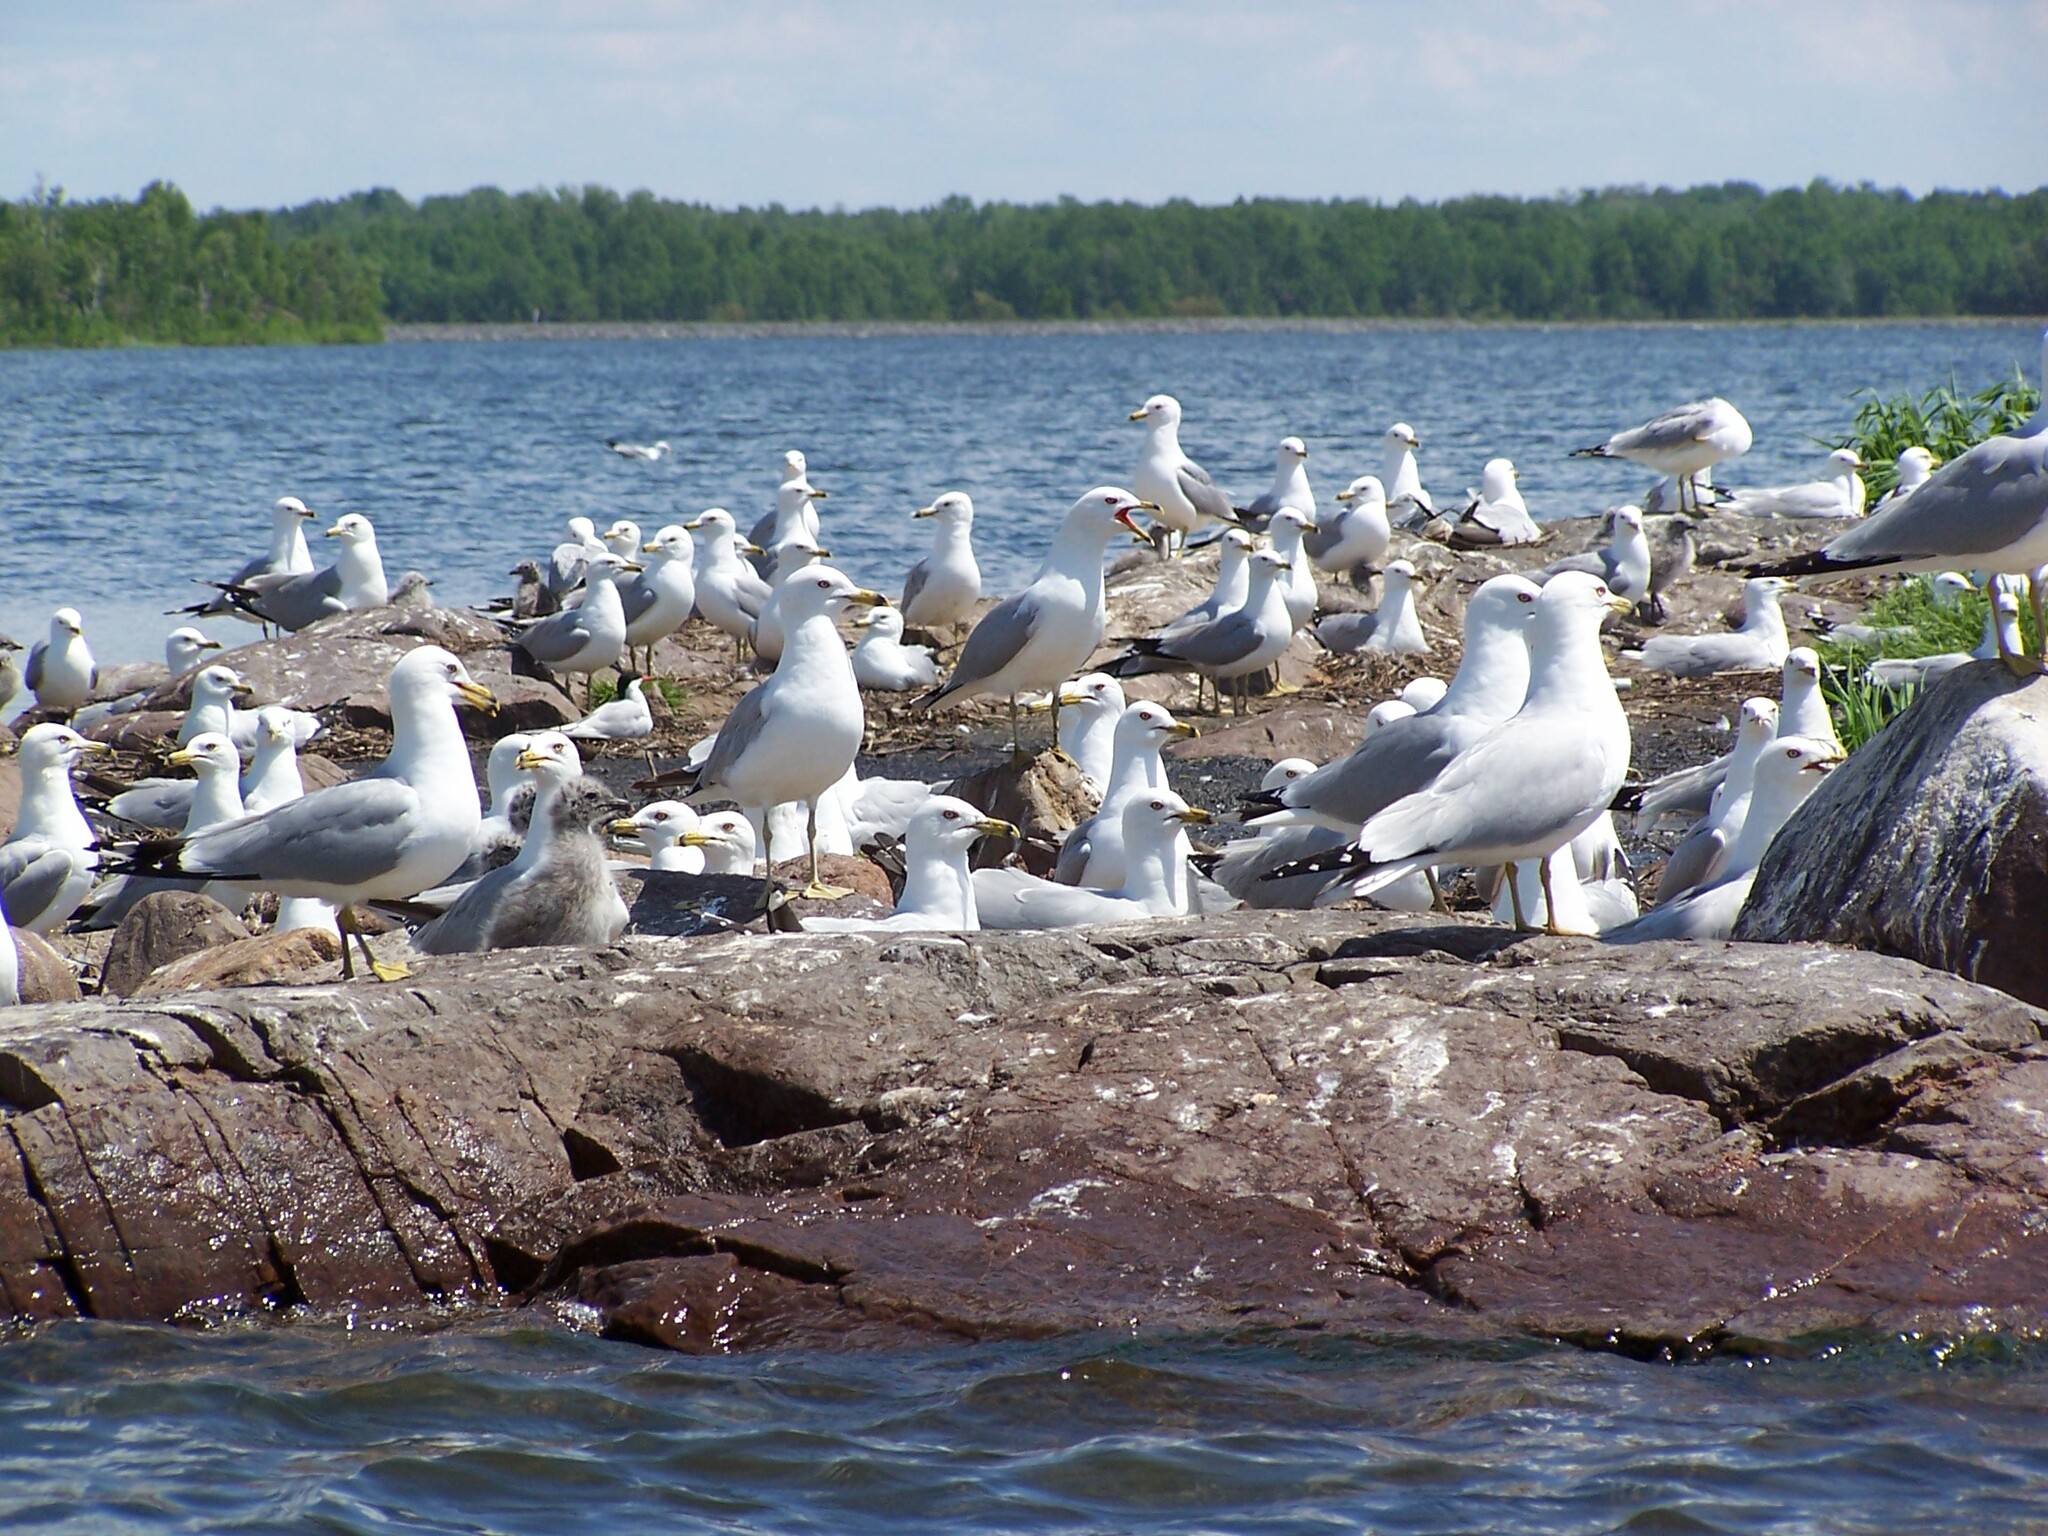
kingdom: Animalia
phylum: Chordata
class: Aves
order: Charadriiformes
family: Laridae
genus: Larus
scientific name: Larus delawarensis
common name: Ring-billed gull
